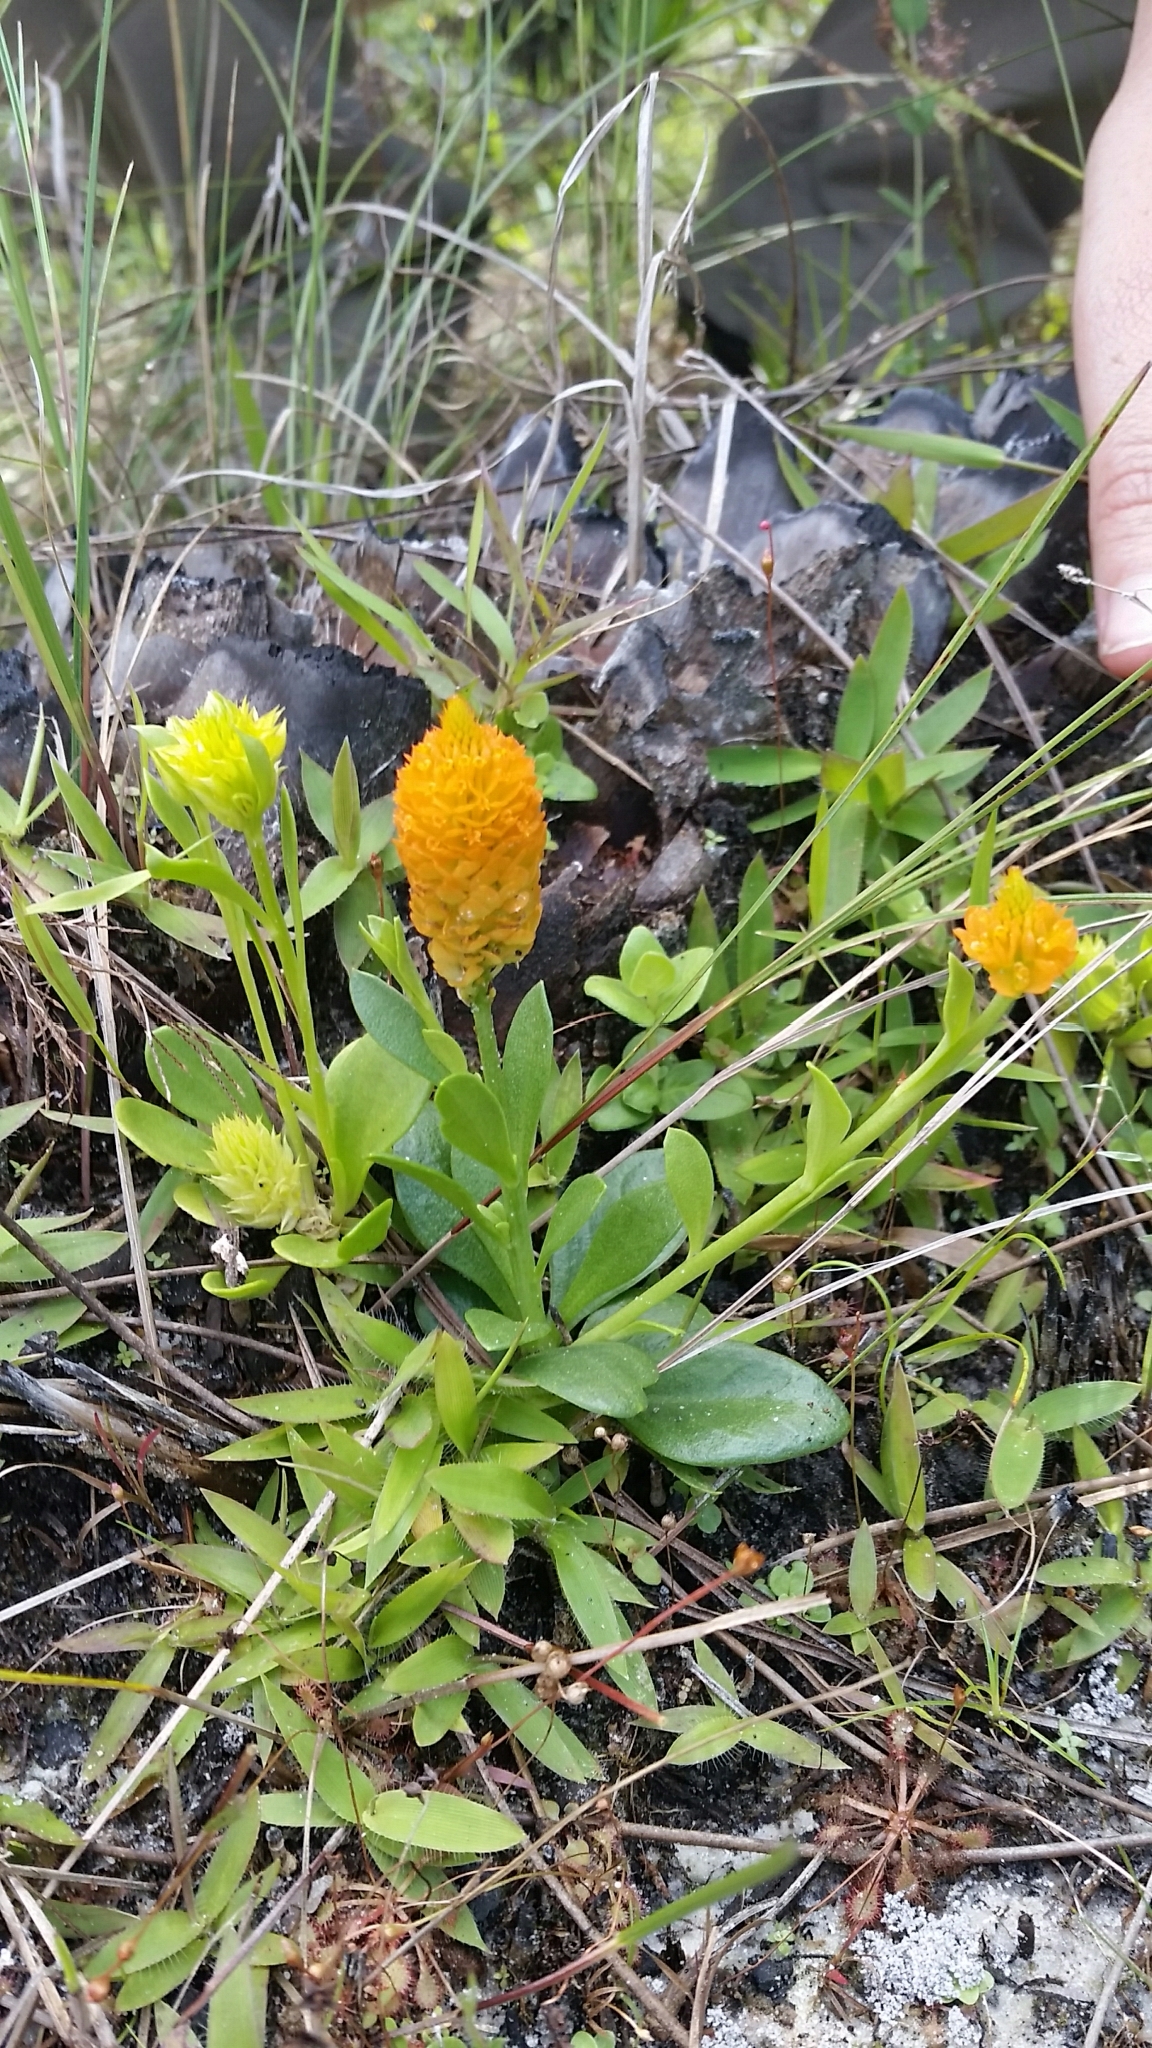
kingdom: Plantae
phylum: Tracheophyta
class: Magnoliopsida
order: Fabales
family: Polygalaceae
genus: Polygala
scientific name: Polygala lutea
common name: Orange milkwort
